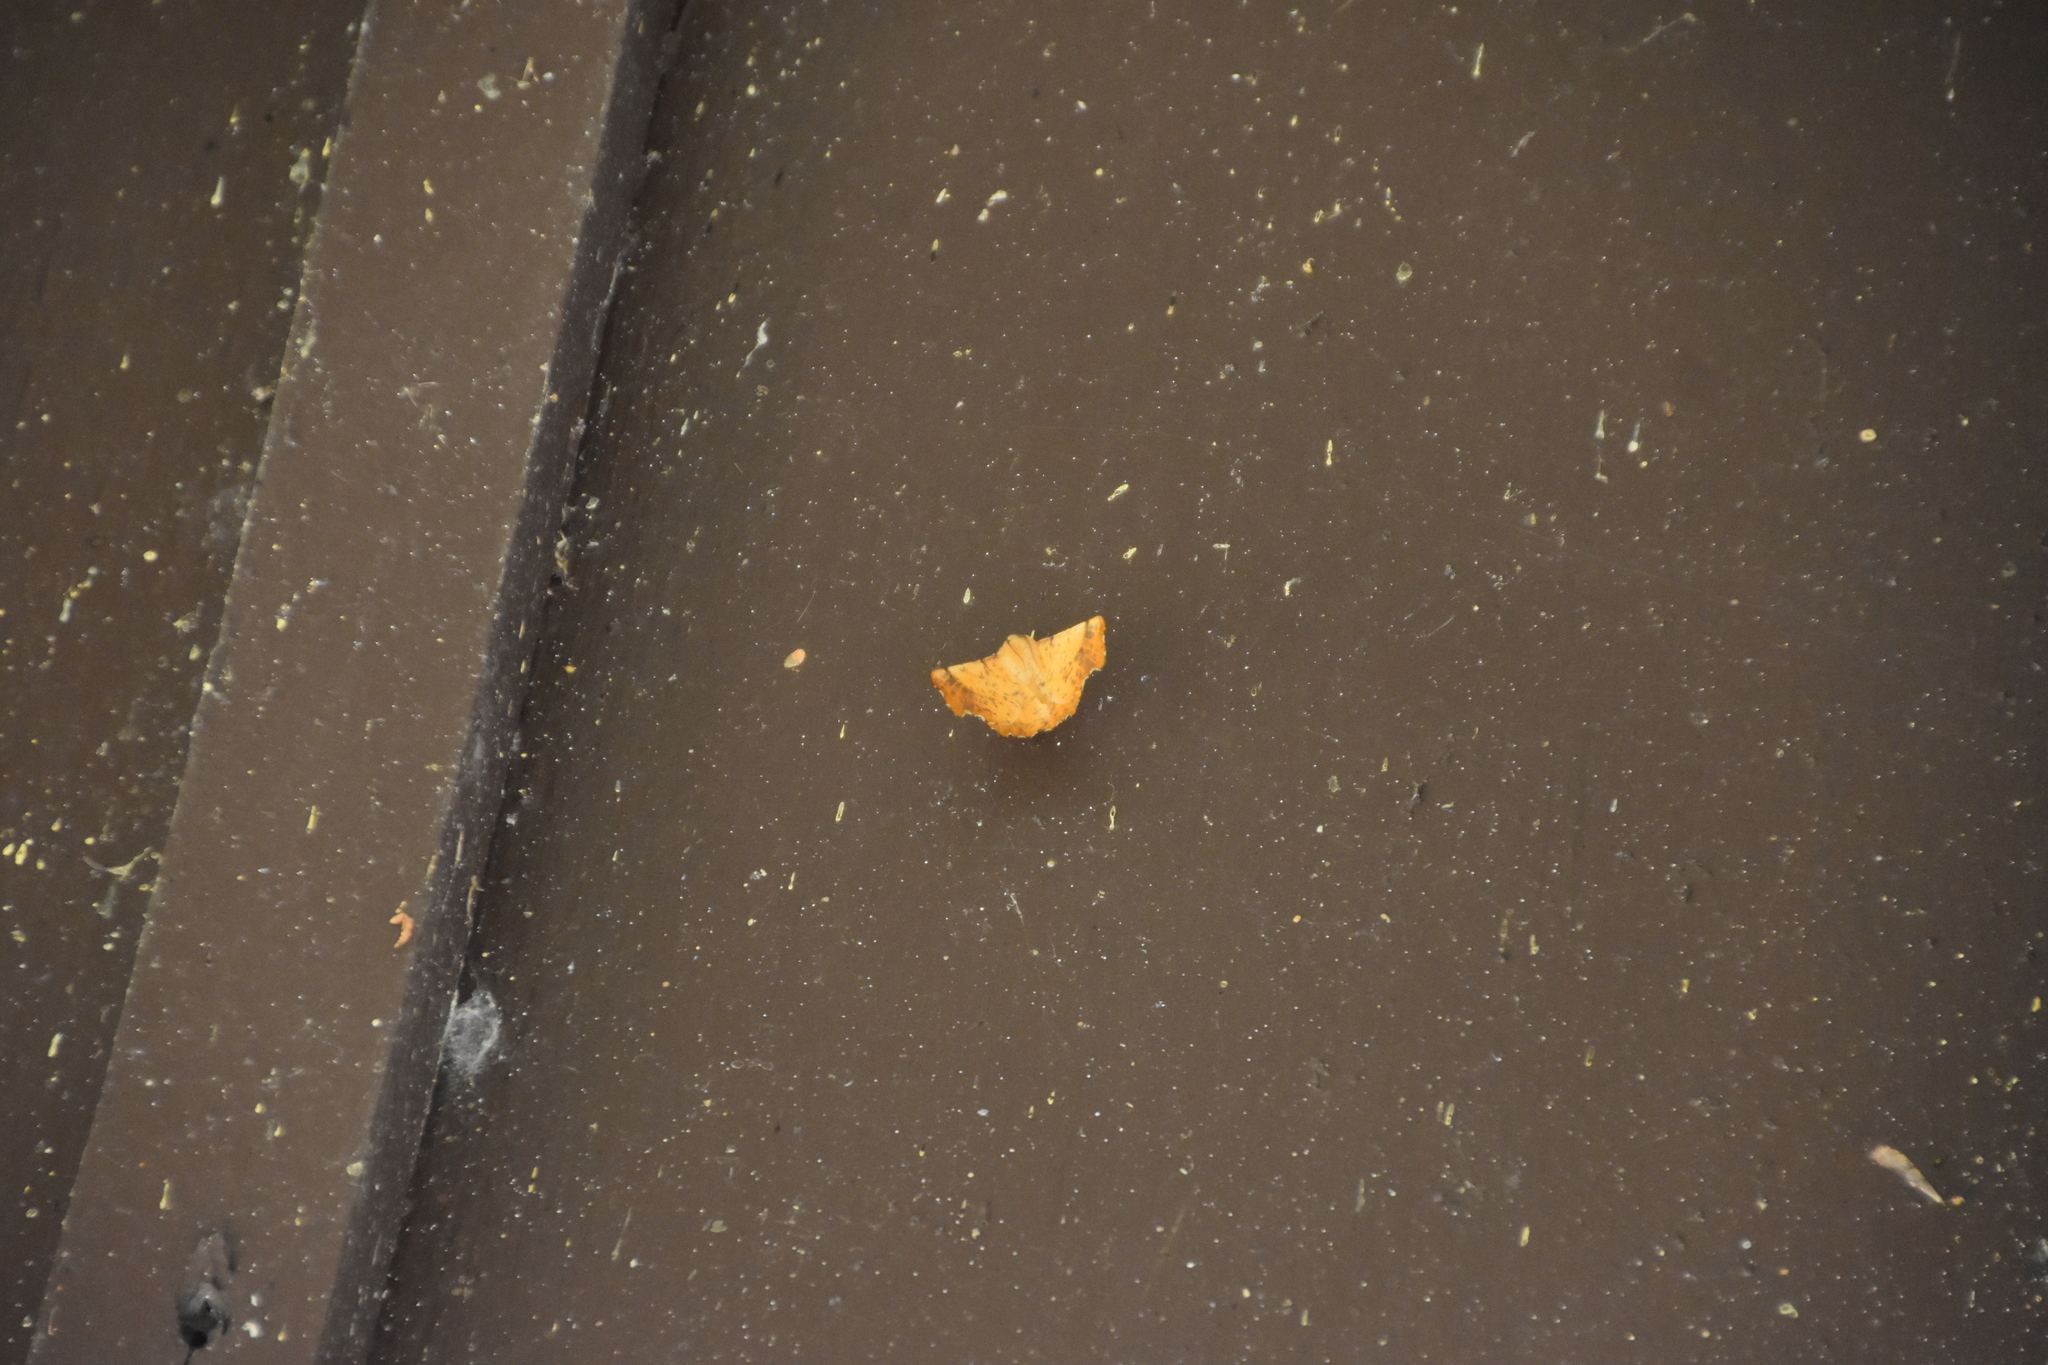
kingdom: Animalia
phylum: Arthropoda
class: Insecta
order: Lepidoptera
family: Geometridae
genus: Ennomos
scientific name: Ennomos magnaria
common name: Maple spanworm
